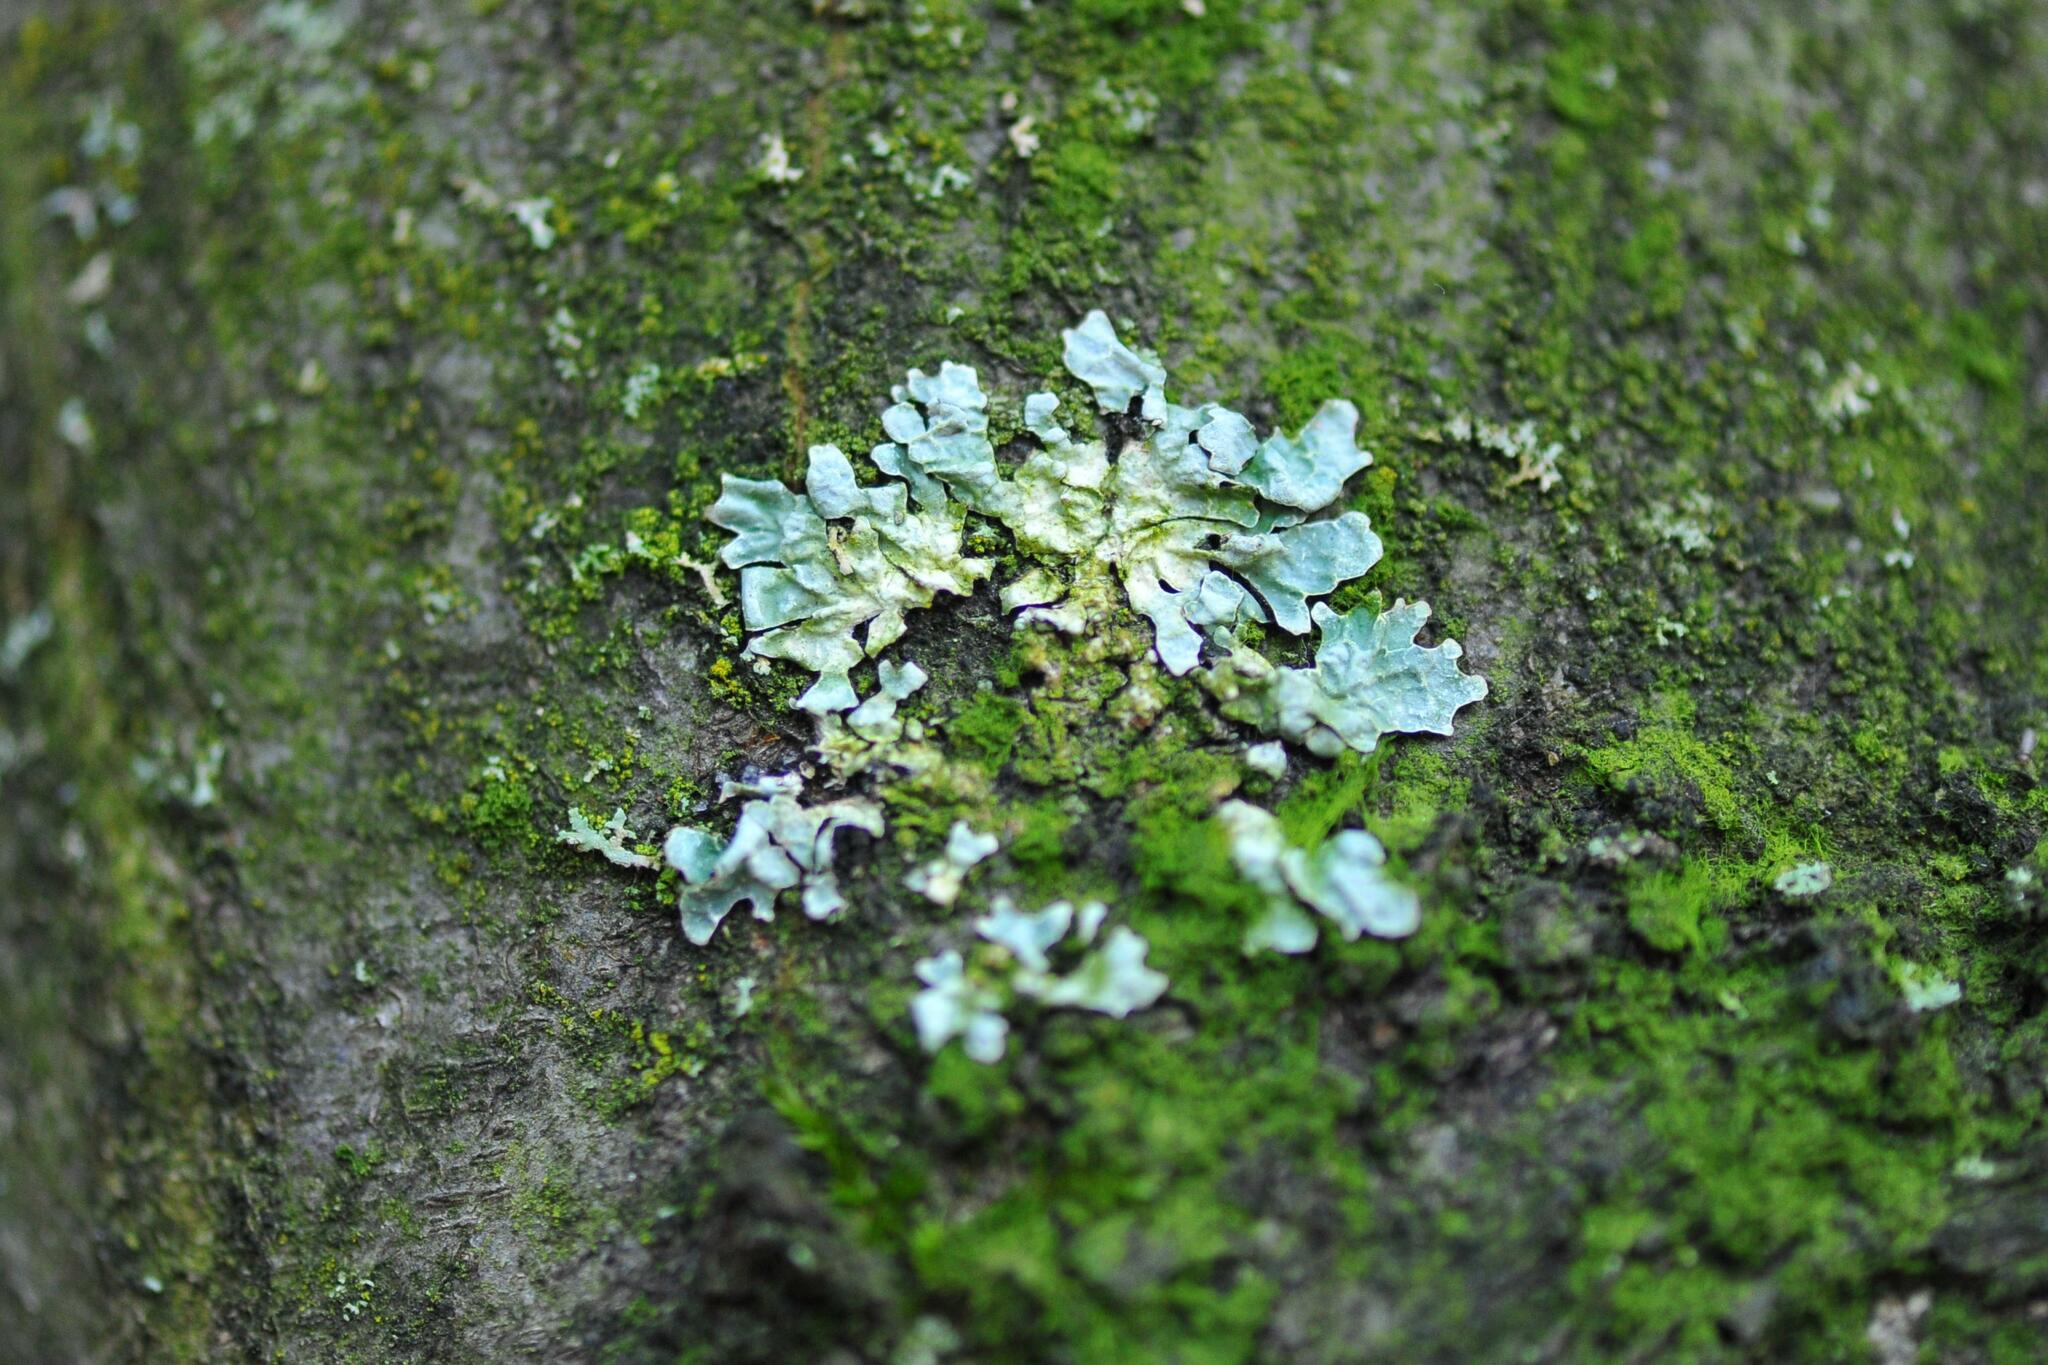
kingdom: Fungi
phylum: Ascomycota
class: Lecanoromycetes
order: Lecanorales
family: Parmeliaceae
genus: Parmelia
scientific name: Parmelia sulcata
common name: Netted shield lichen
